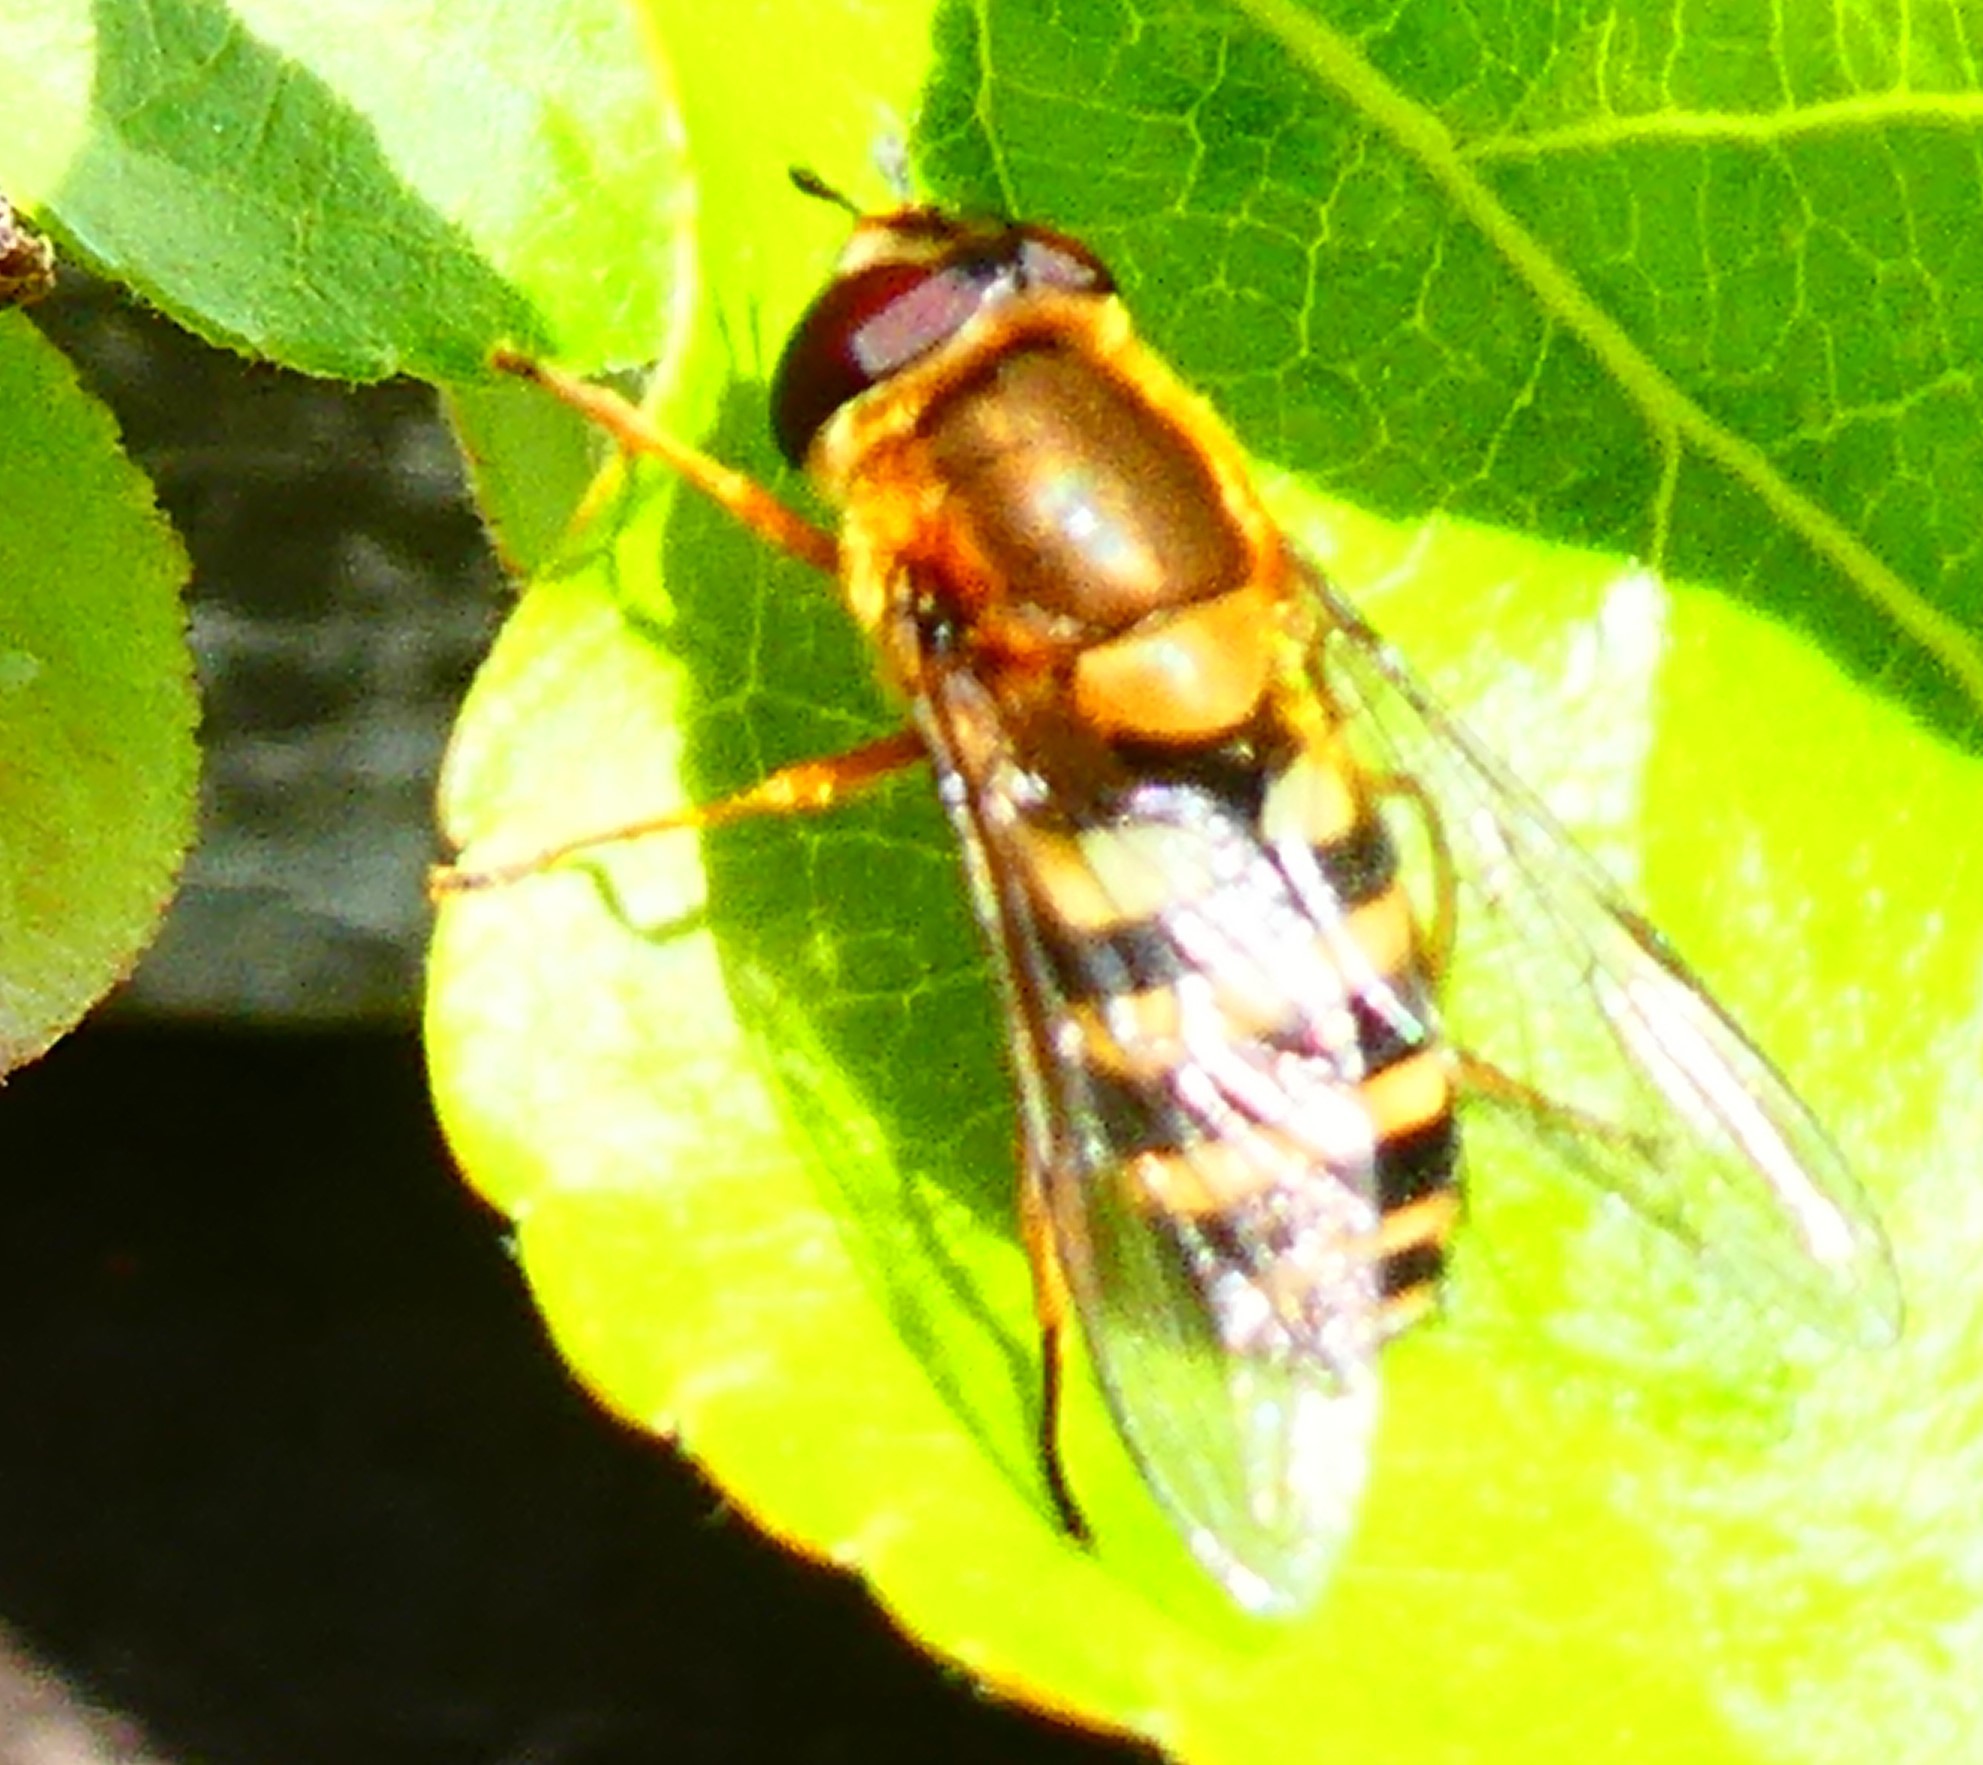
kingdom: Animalia
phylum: Arthropoda
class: Insecta
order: Diptera
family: Syrphidae
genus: Syrphus
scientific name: Syrphus
